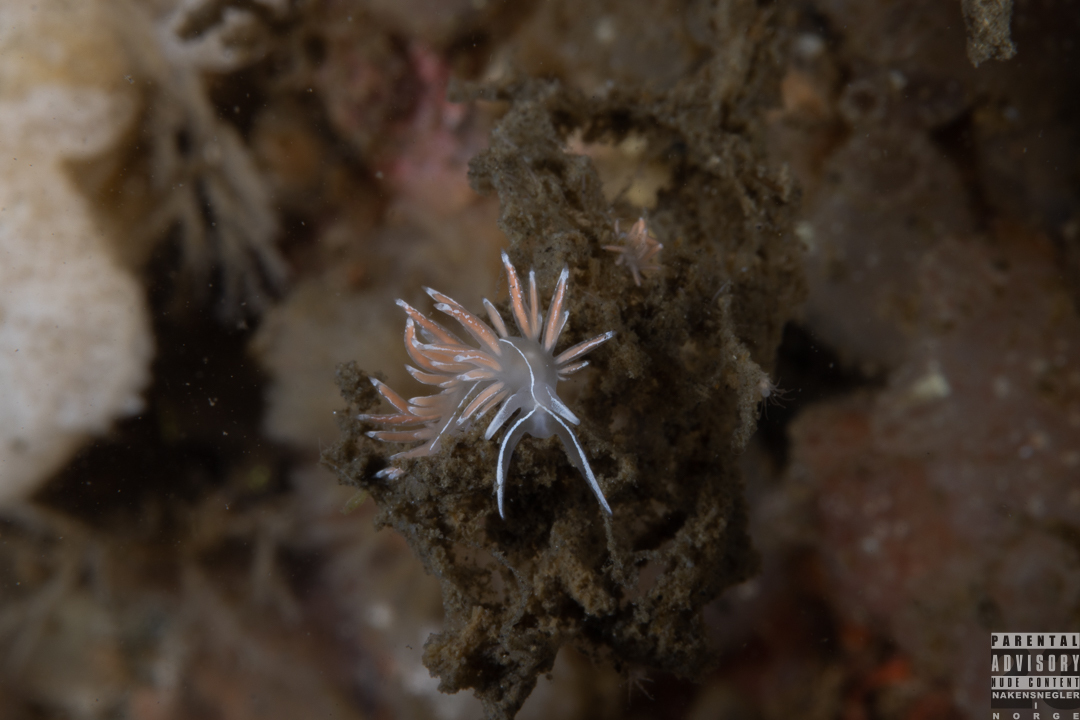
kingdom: Animalia
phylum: Mollusca
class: Gastropoda
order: Nudibranchia
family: Coryphellidae
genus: Coryphella
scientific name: Coryphella lineata
